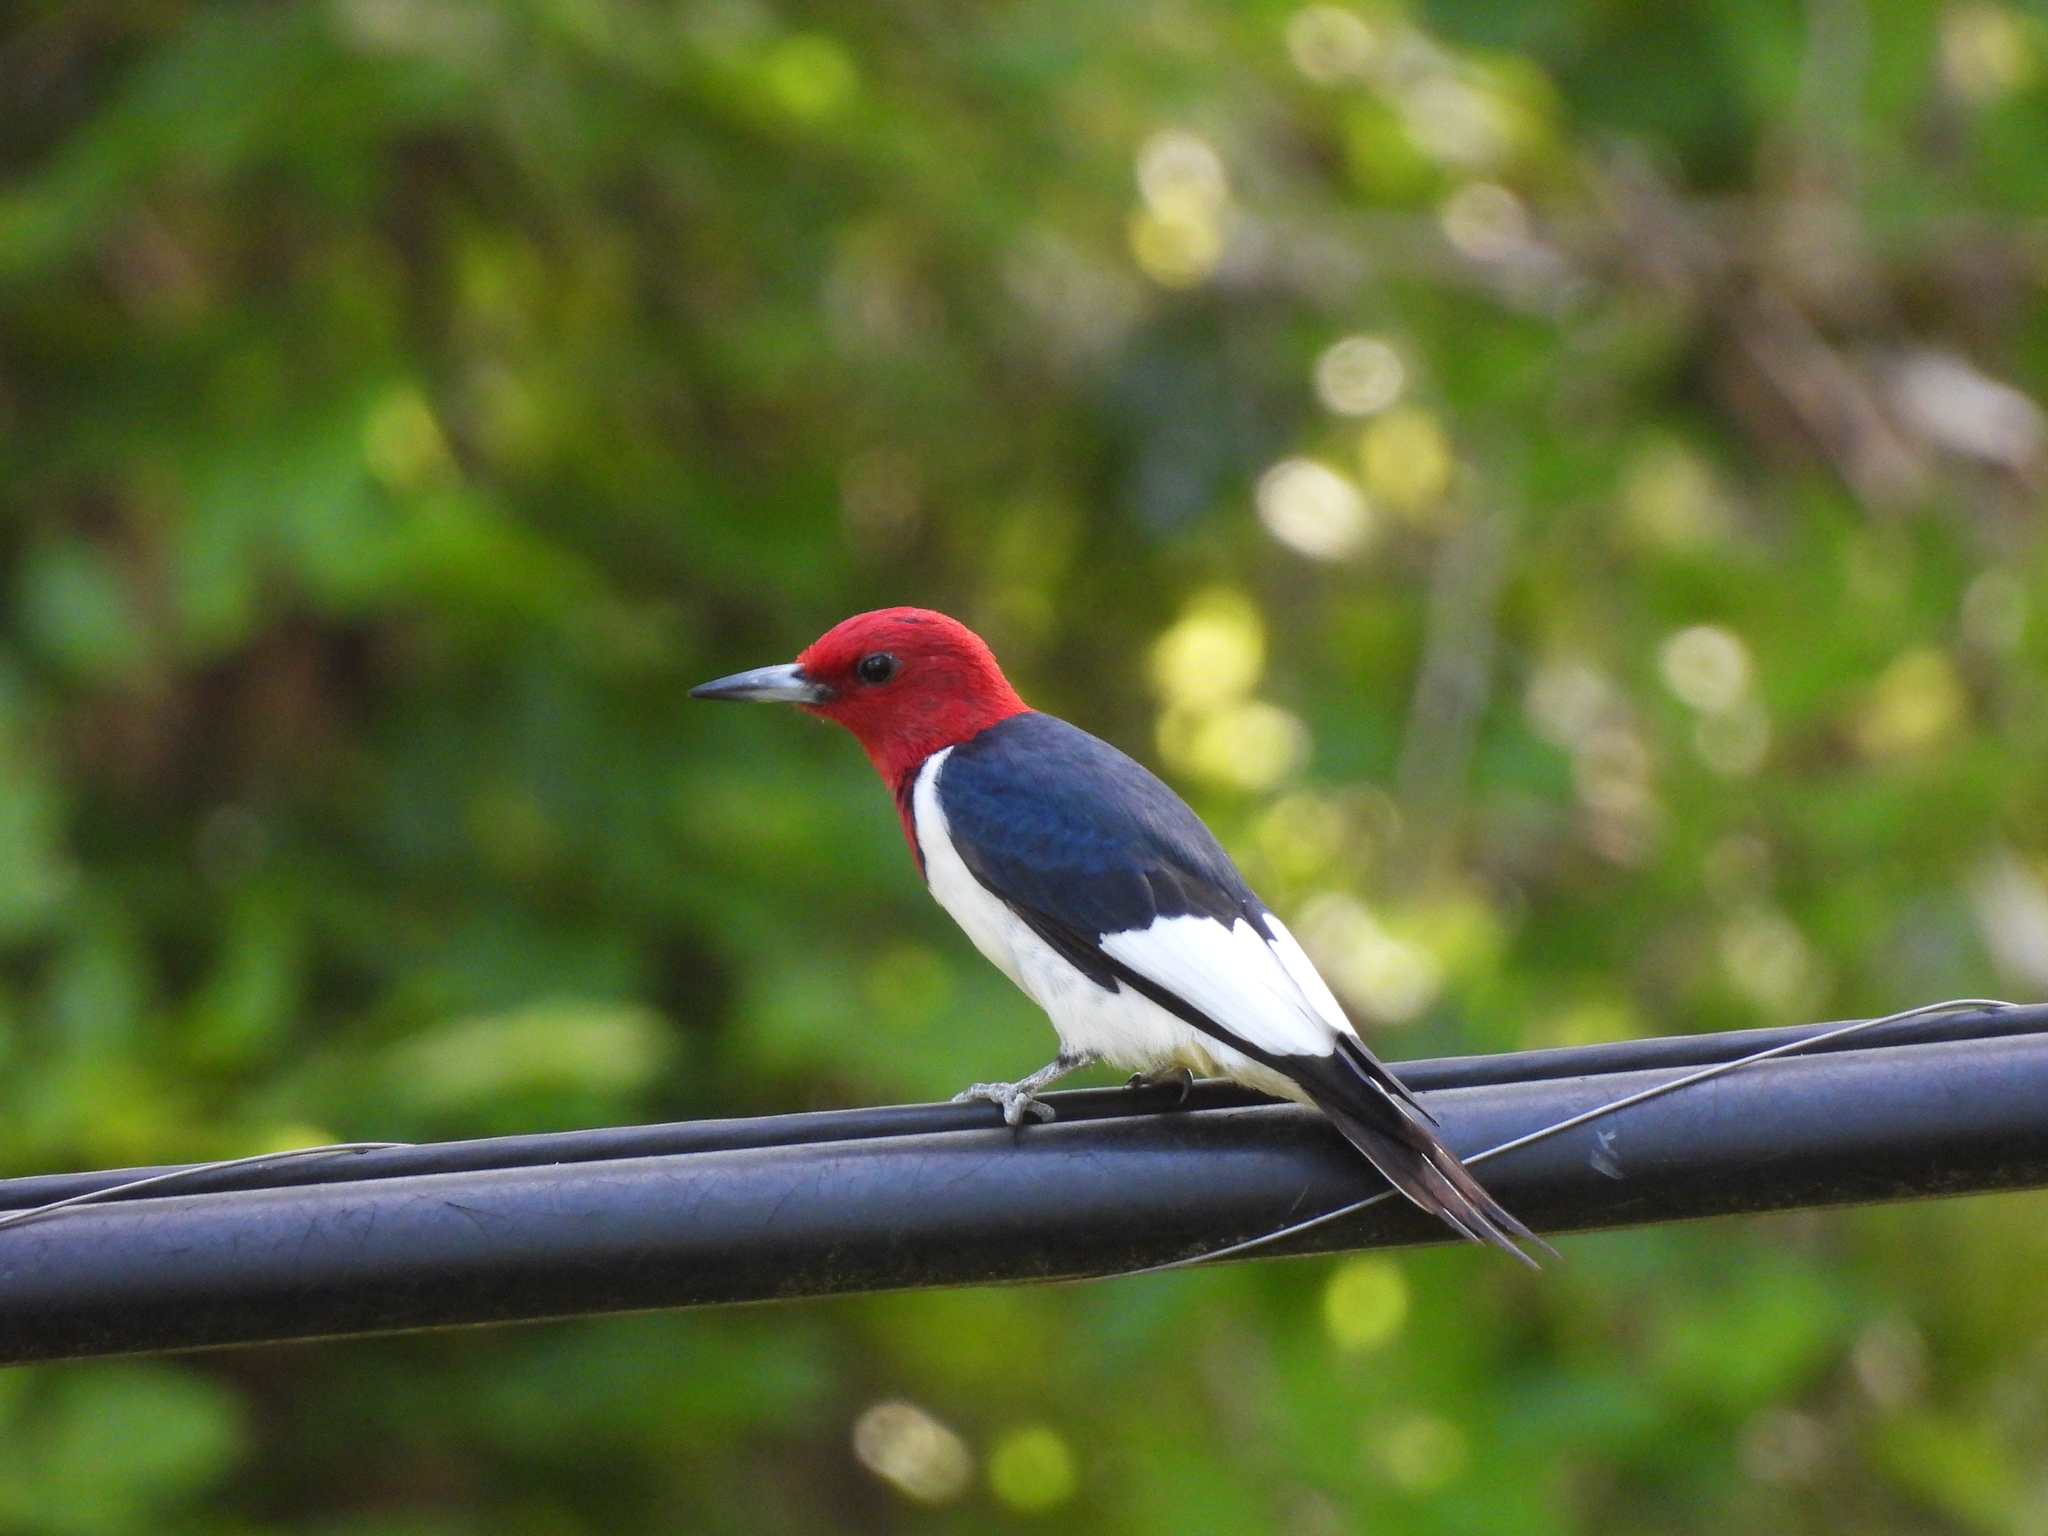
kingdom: Animalia
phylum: Chordata
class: Aves
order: Piciformes
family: Picidae
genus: Melanerpes
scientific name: Melanerpes erythrocephalus
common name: Red-headed woodpecker
